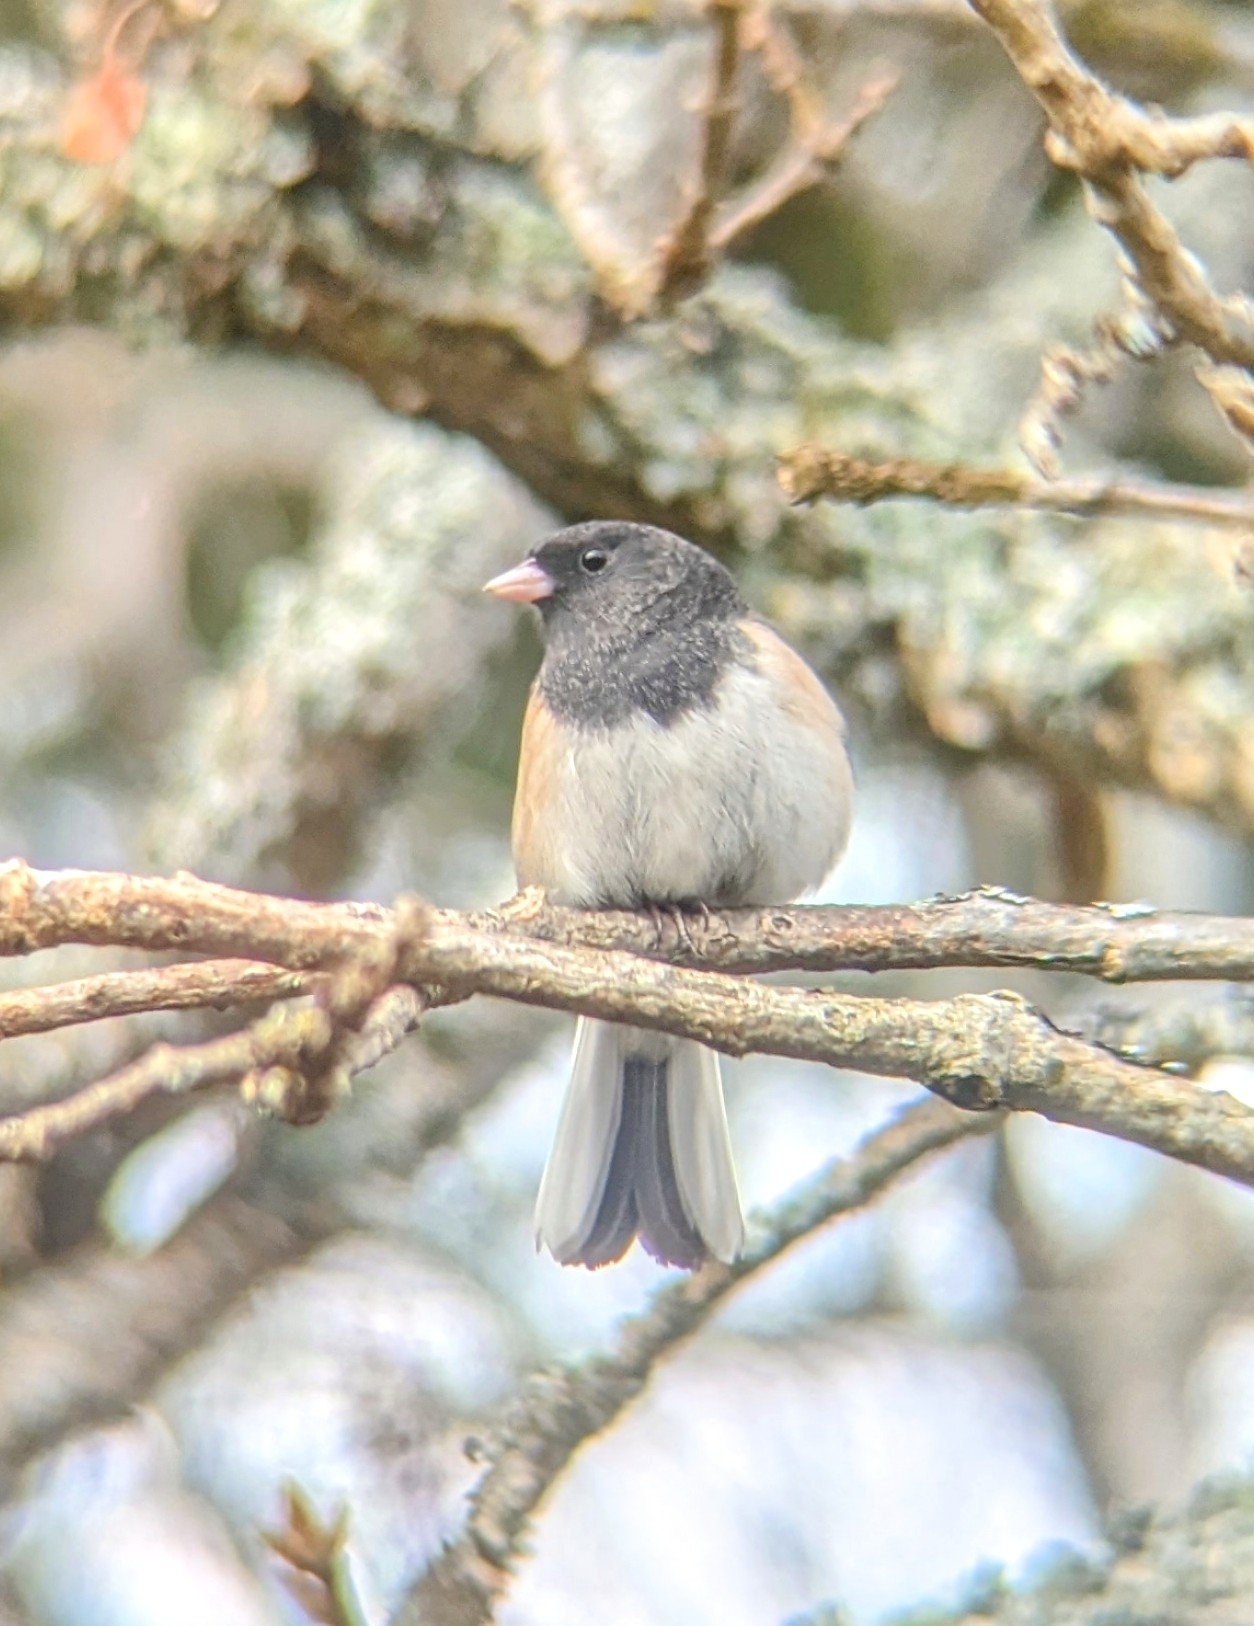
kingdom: Animalia
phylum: Chordata
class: Aves
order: Passeriformes
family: Passerellidae
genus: Junco
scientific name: Junco hyemalis
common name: Dark-eyed junco
